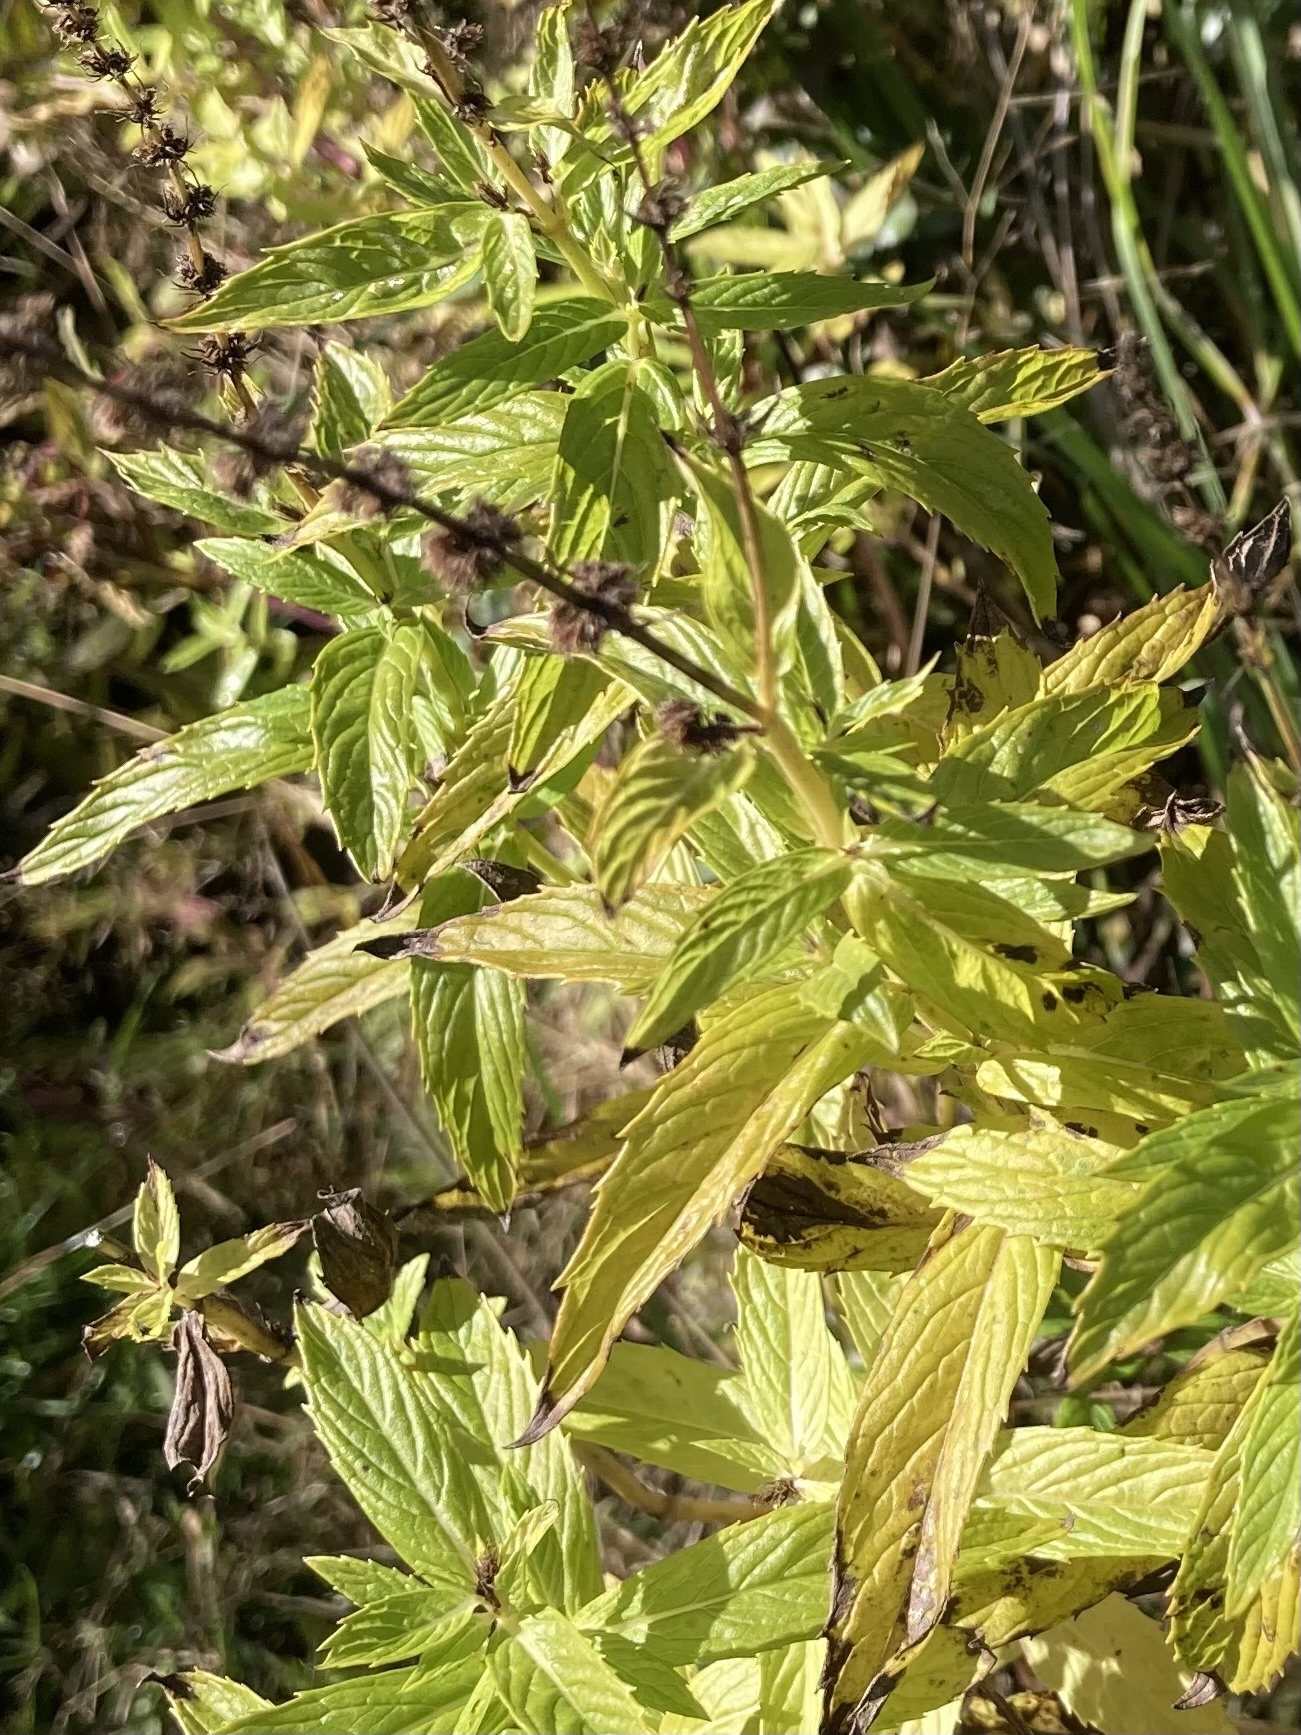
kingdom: Plantae
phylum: Tracheophyta
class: Magnoliopsida
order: Lamiales
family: Lamiaceae
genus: Mentha
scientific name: Mentha spicata
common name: Spearmint
